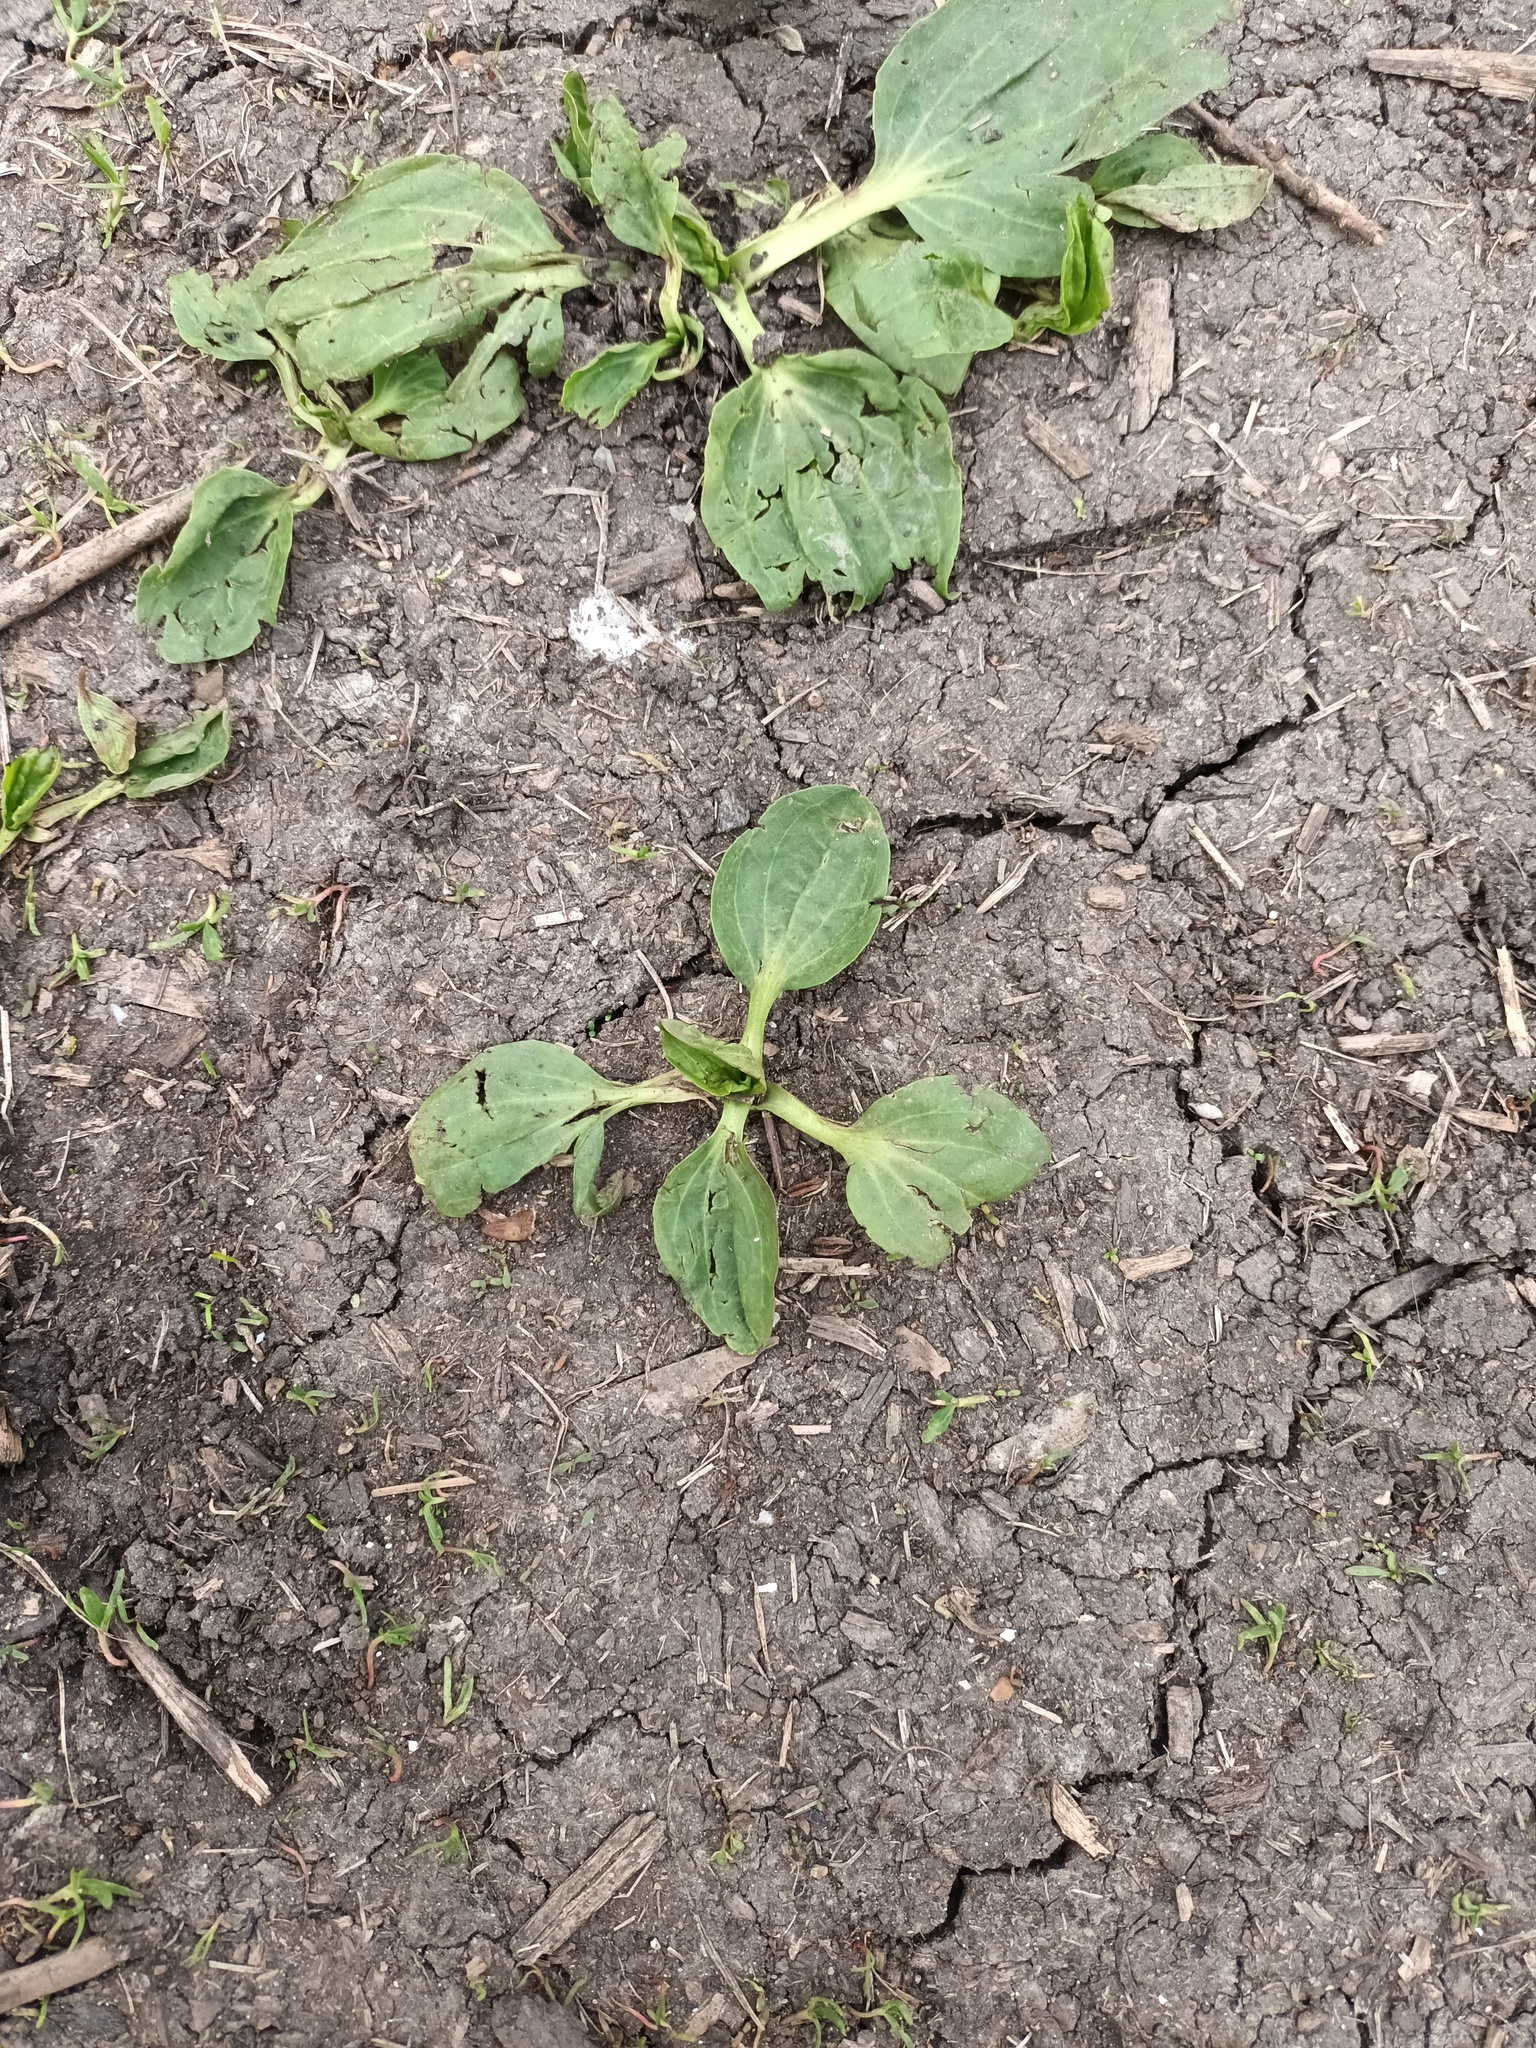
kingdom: Plantae
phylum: Tracheophyta
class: Magnoliopsida
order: Lamiales
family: Plantaginaceae
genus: Plantago
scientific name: Plantago major
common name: Common plantain
